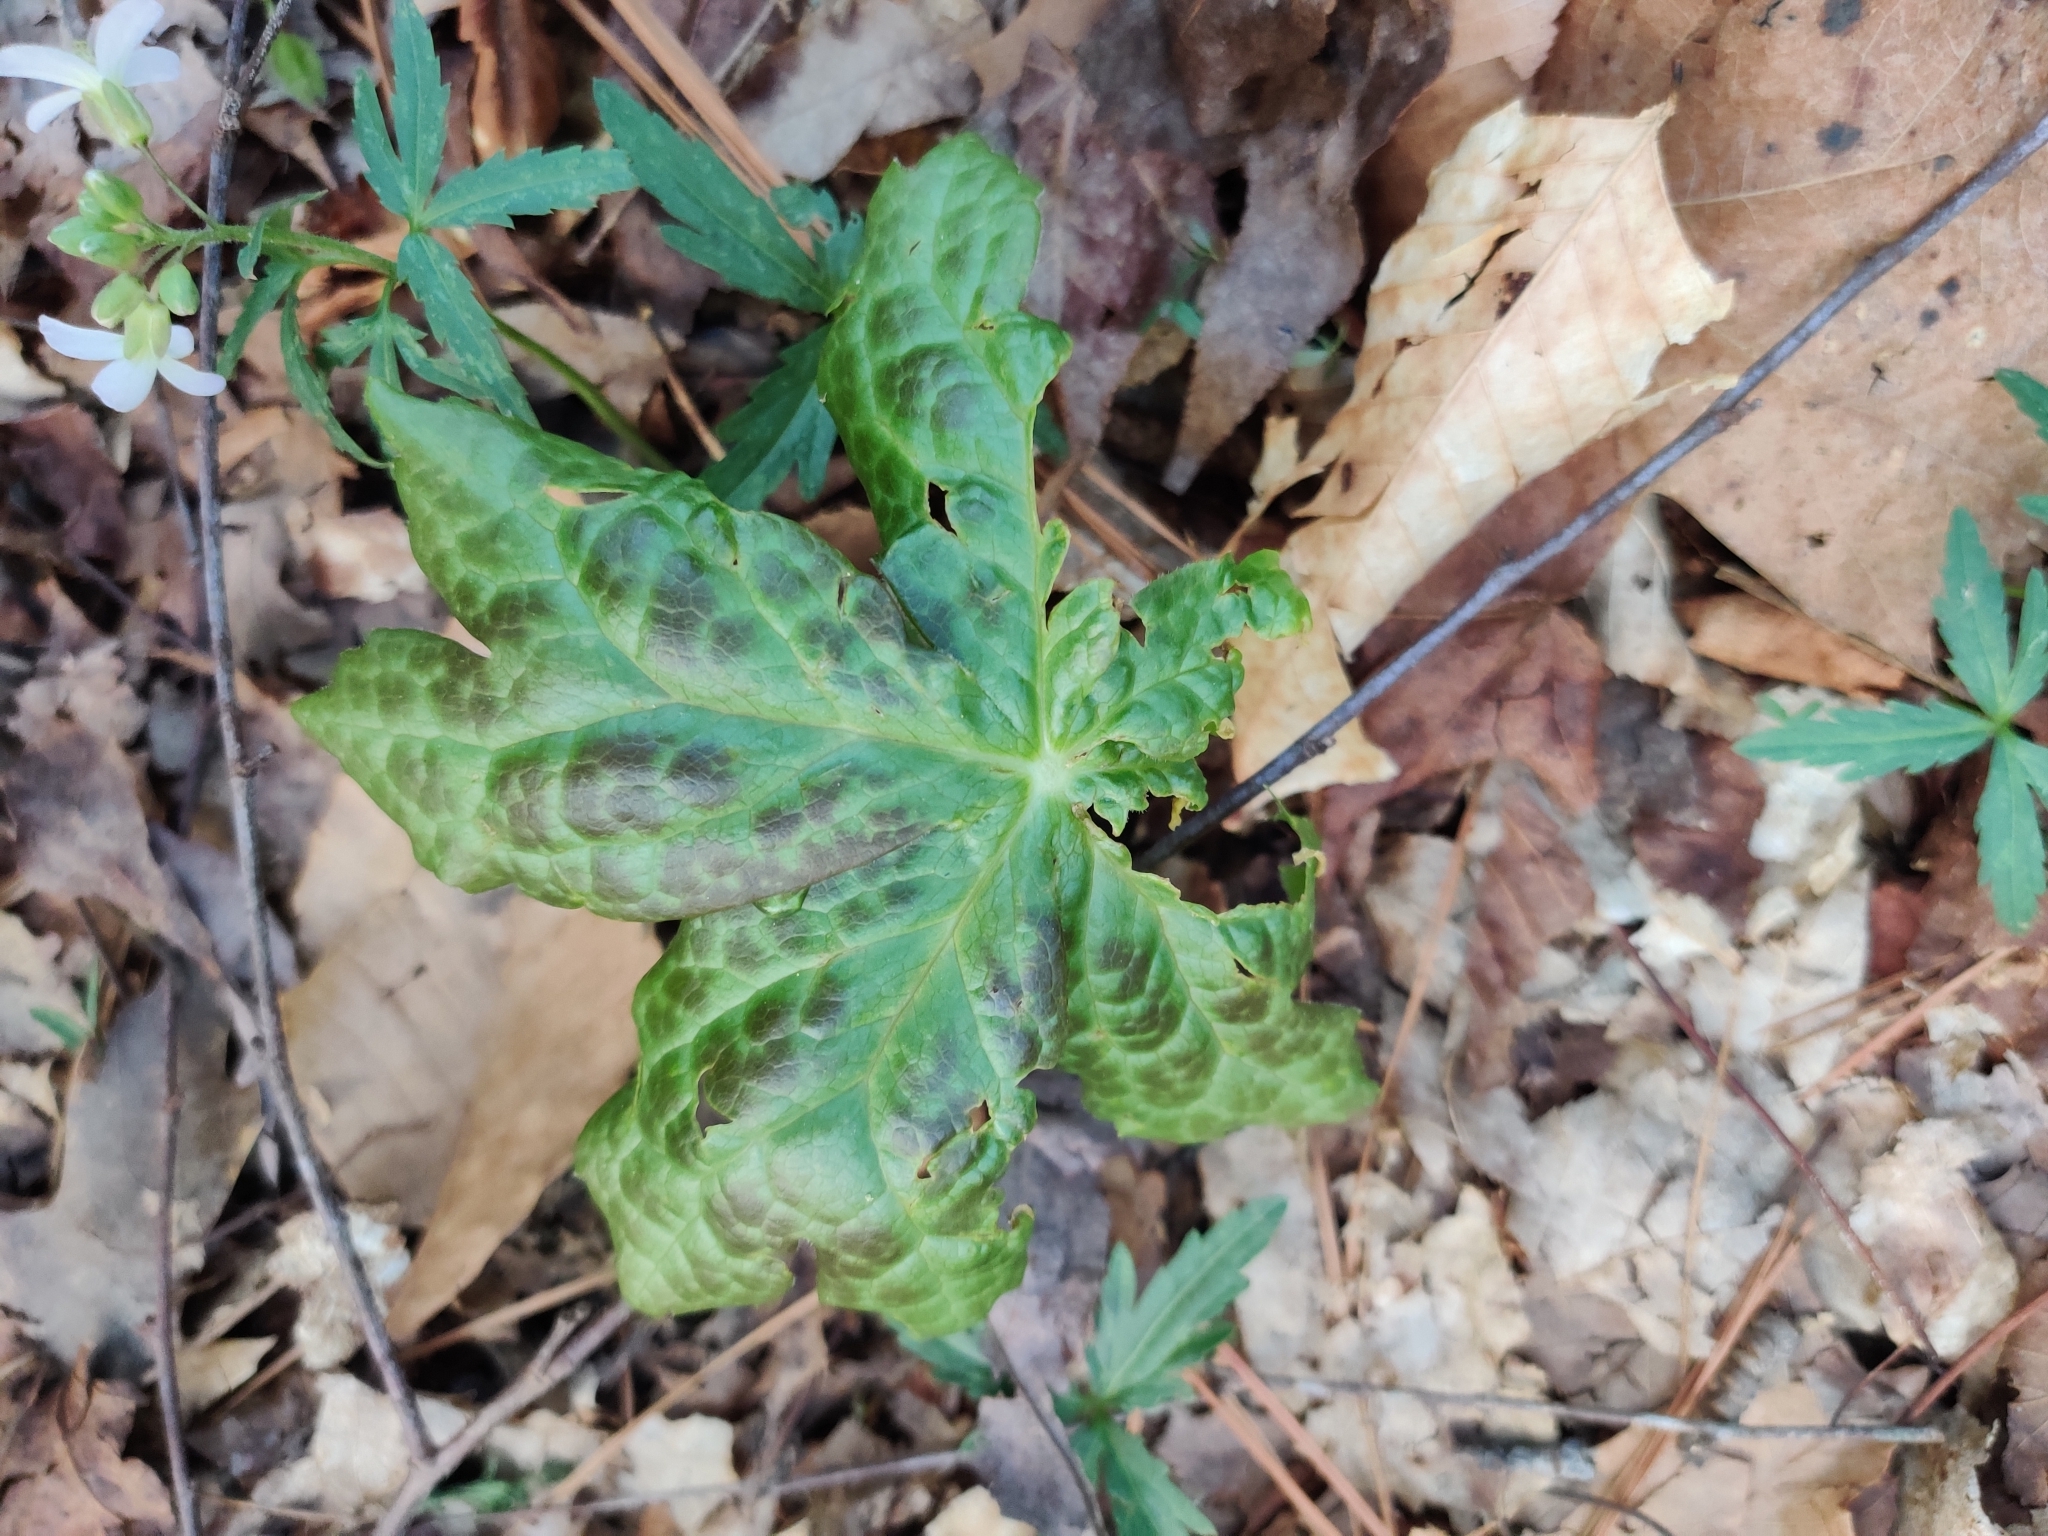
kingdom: Plantae
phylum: Tracheophyta
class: Magnoliopsida
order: Ranunculales
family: Berberidaceae
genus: Podophyllum
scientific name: Podophyllum peltatum
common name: Wild mandrake
